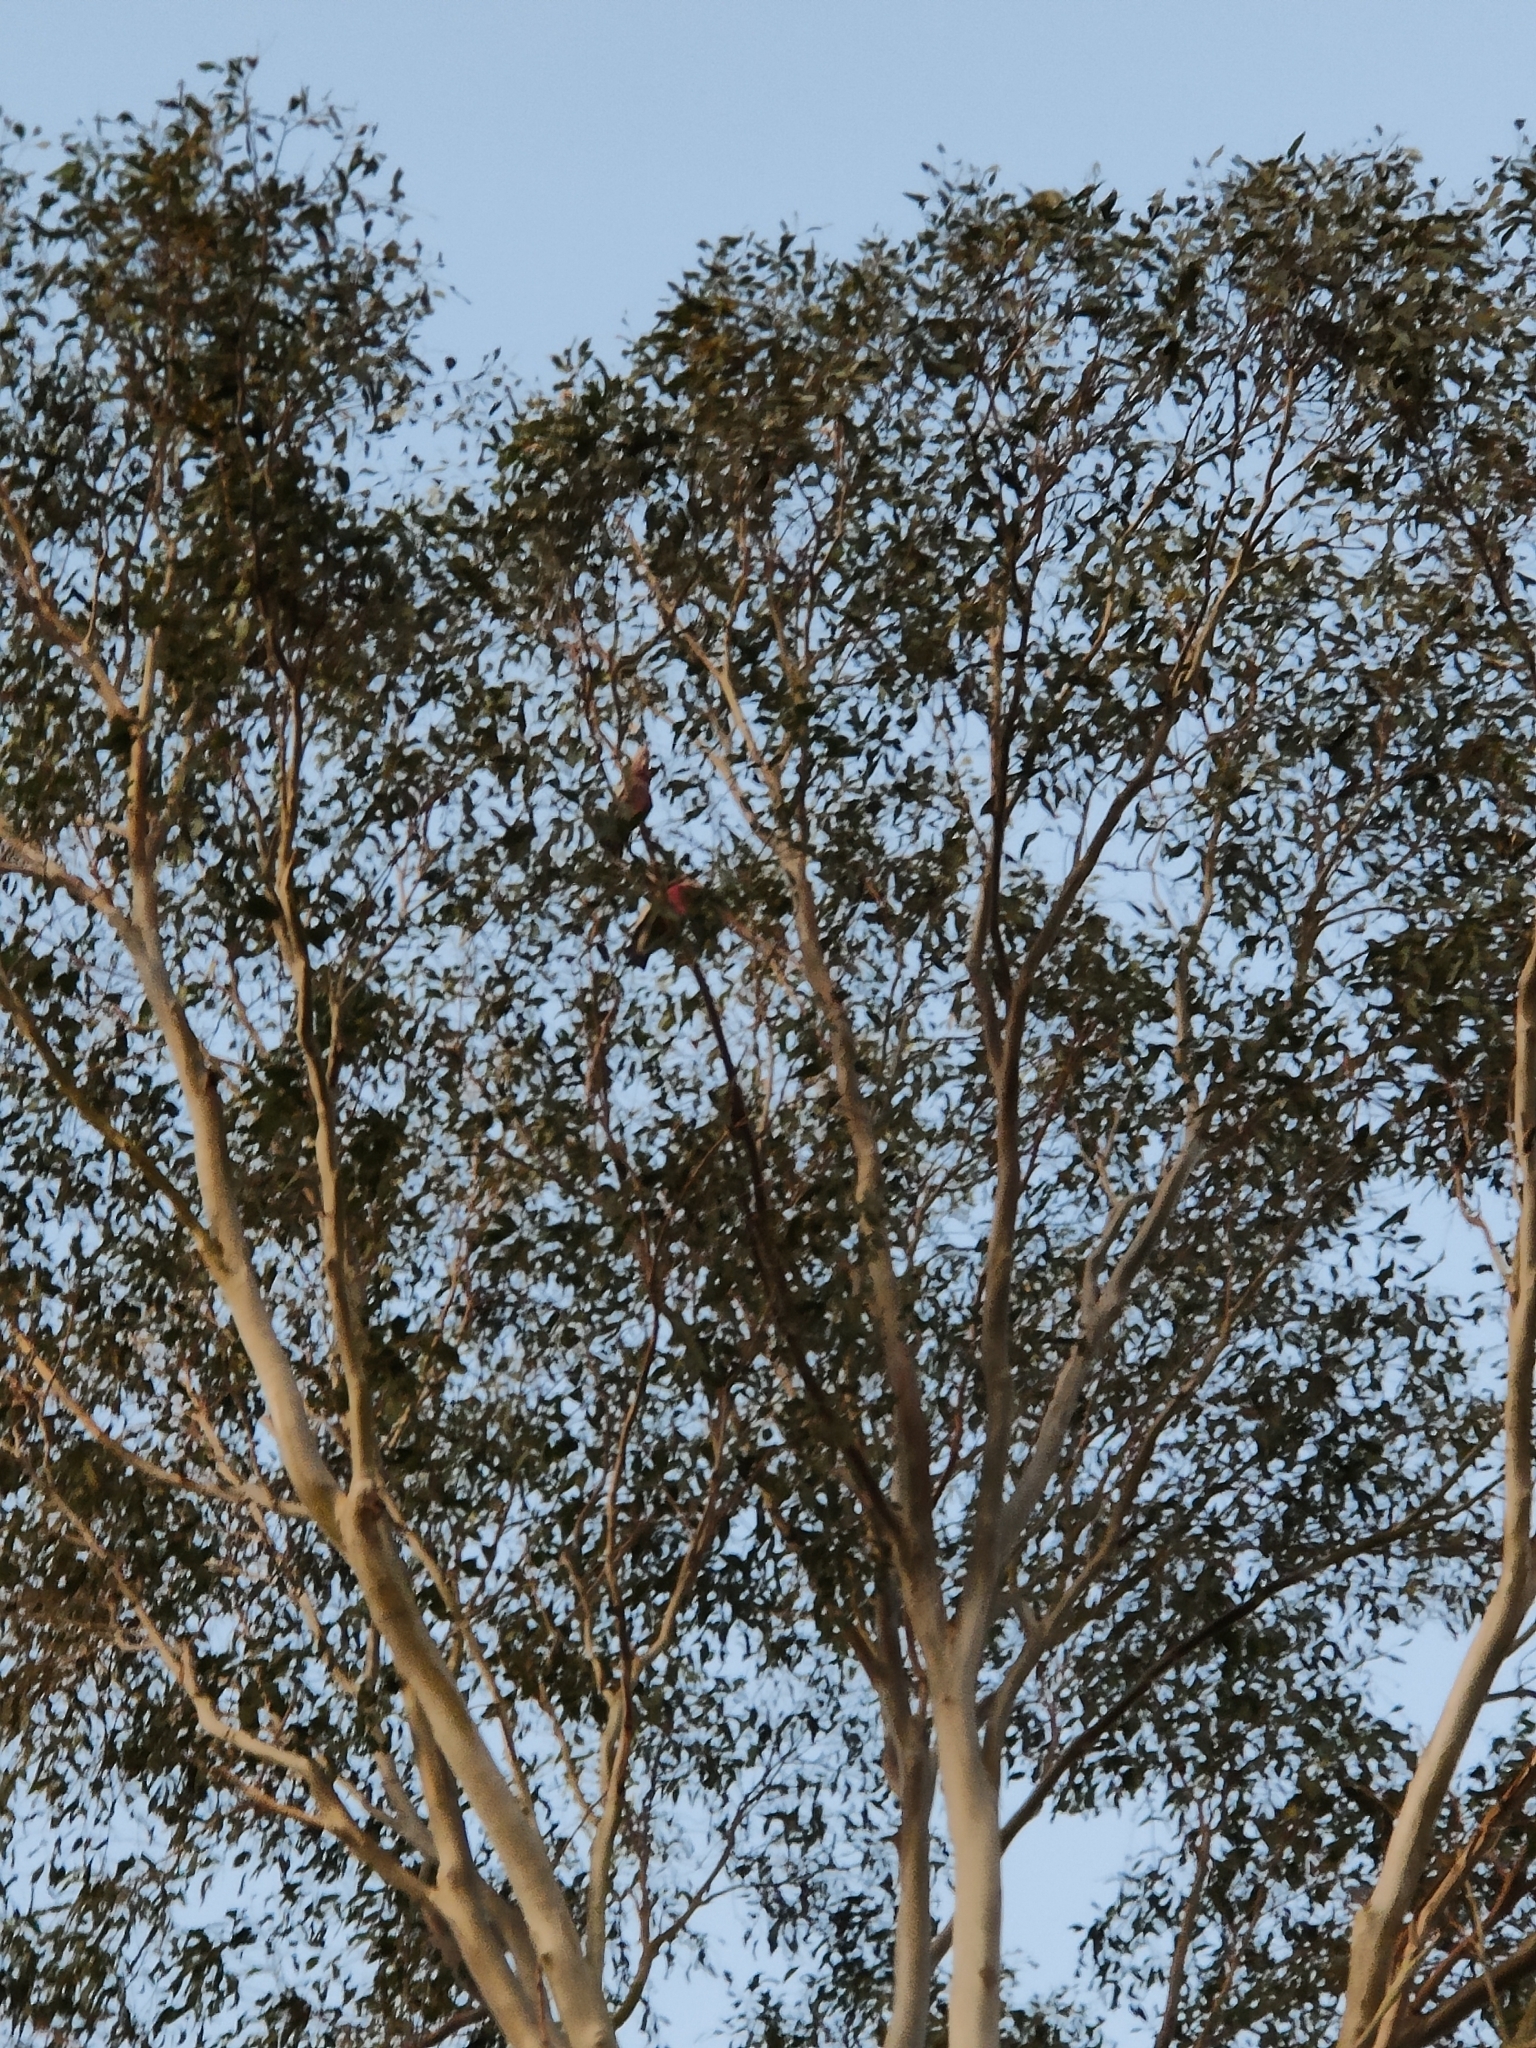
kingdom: Animalia
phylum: Chordata
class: Aves
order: Psittaciformes
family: Psittacidae
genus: Eolophus
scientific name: Eolophus roseicapilla
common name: Galah
